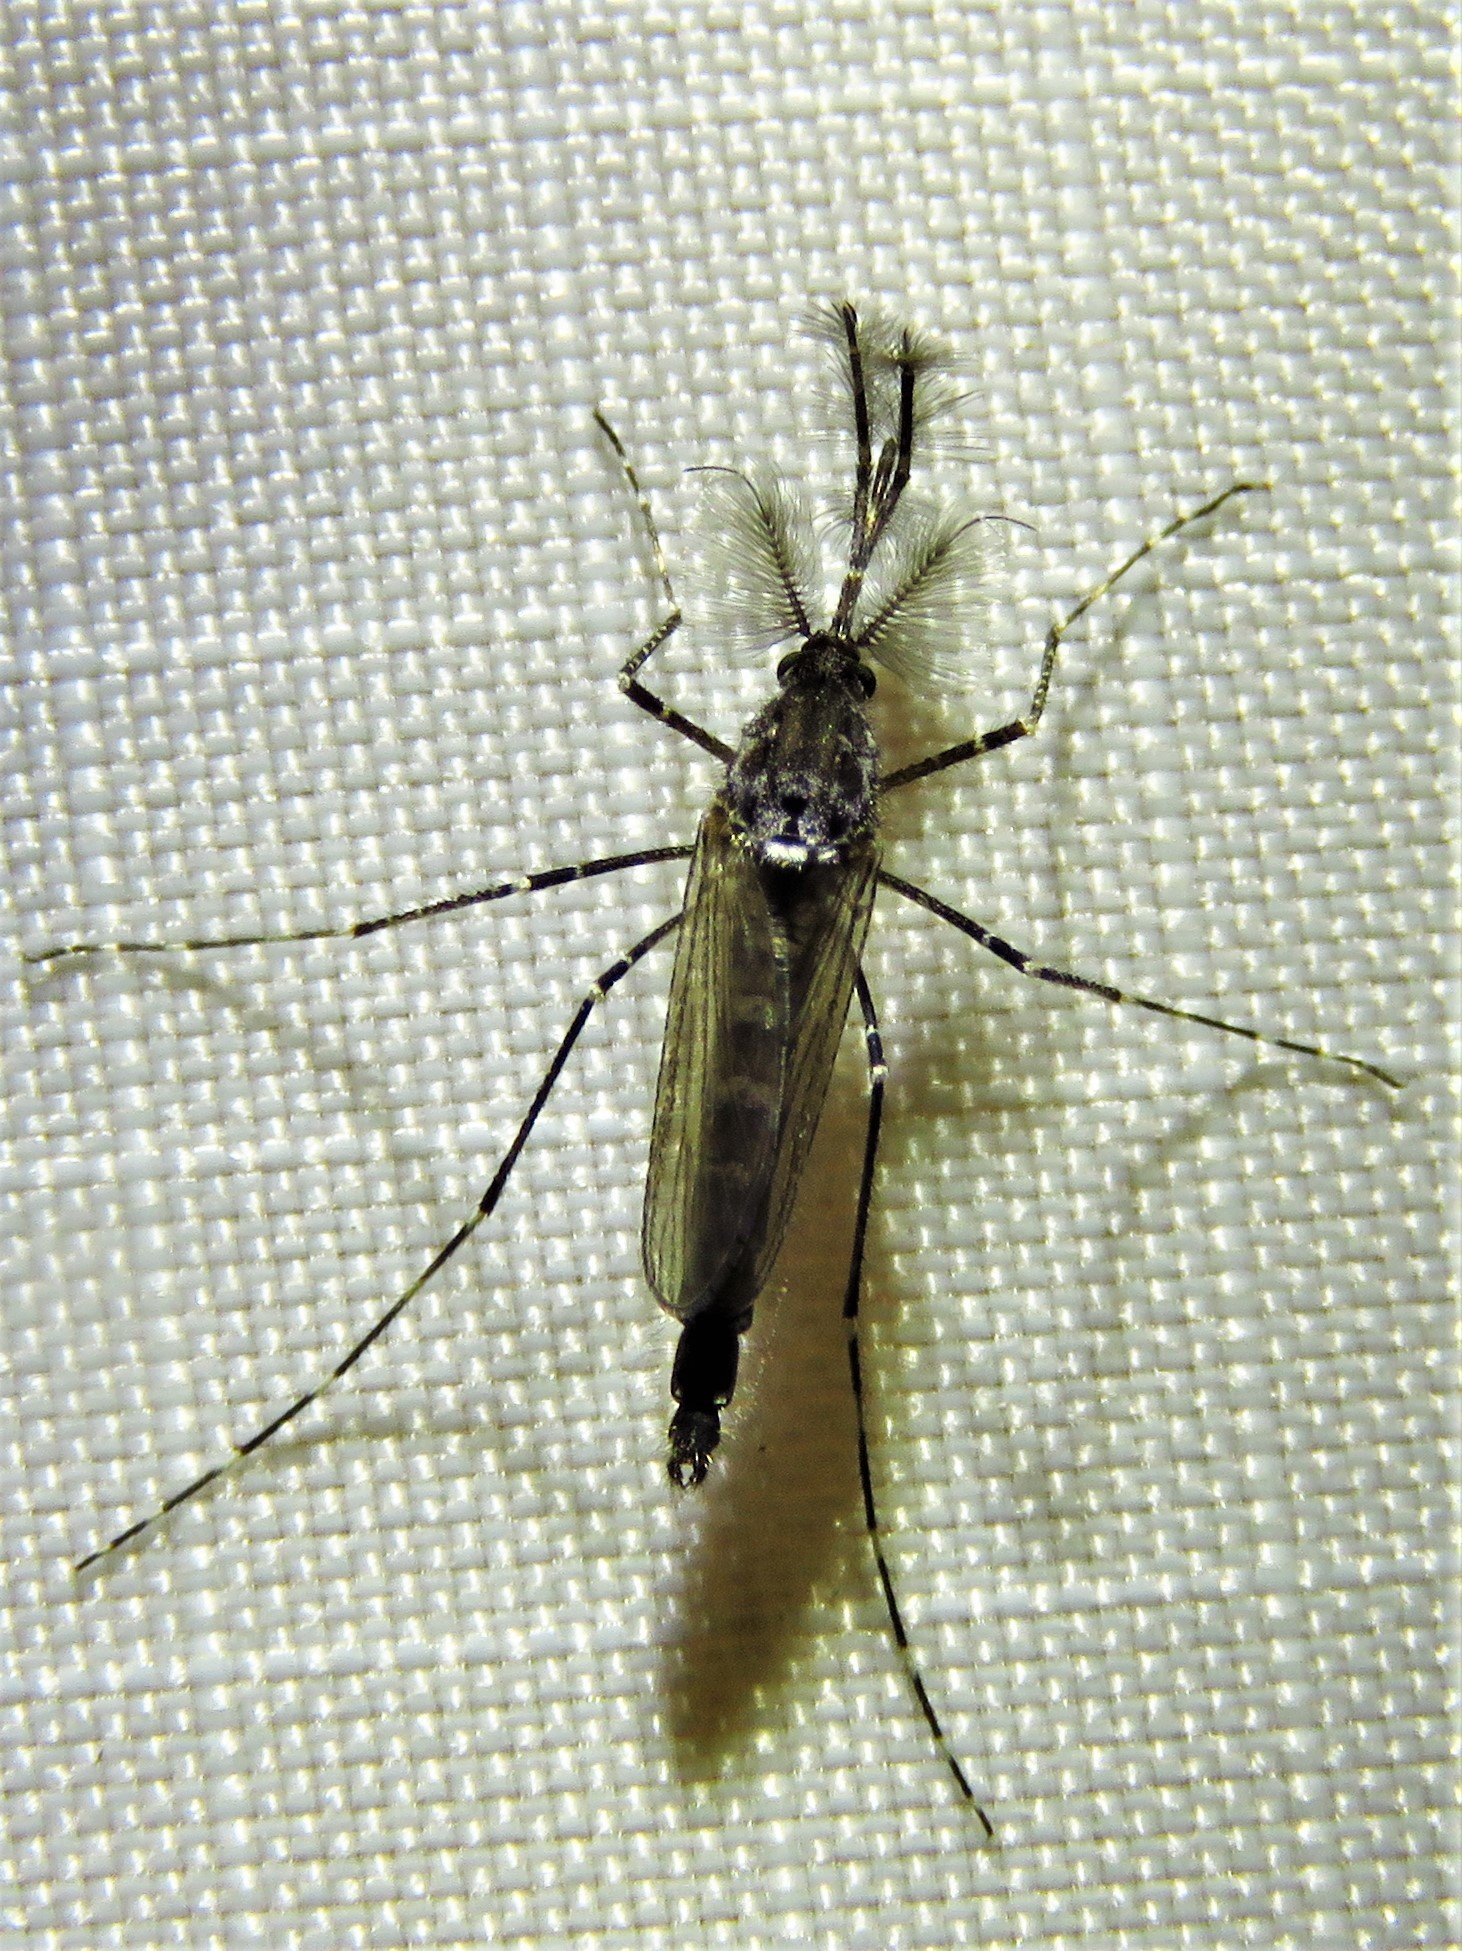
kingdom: Animalia
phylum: Arthropoda
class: Insecta
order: Diptera
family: Culicidae
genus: Psorophora
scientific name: Psorophora columbiae
